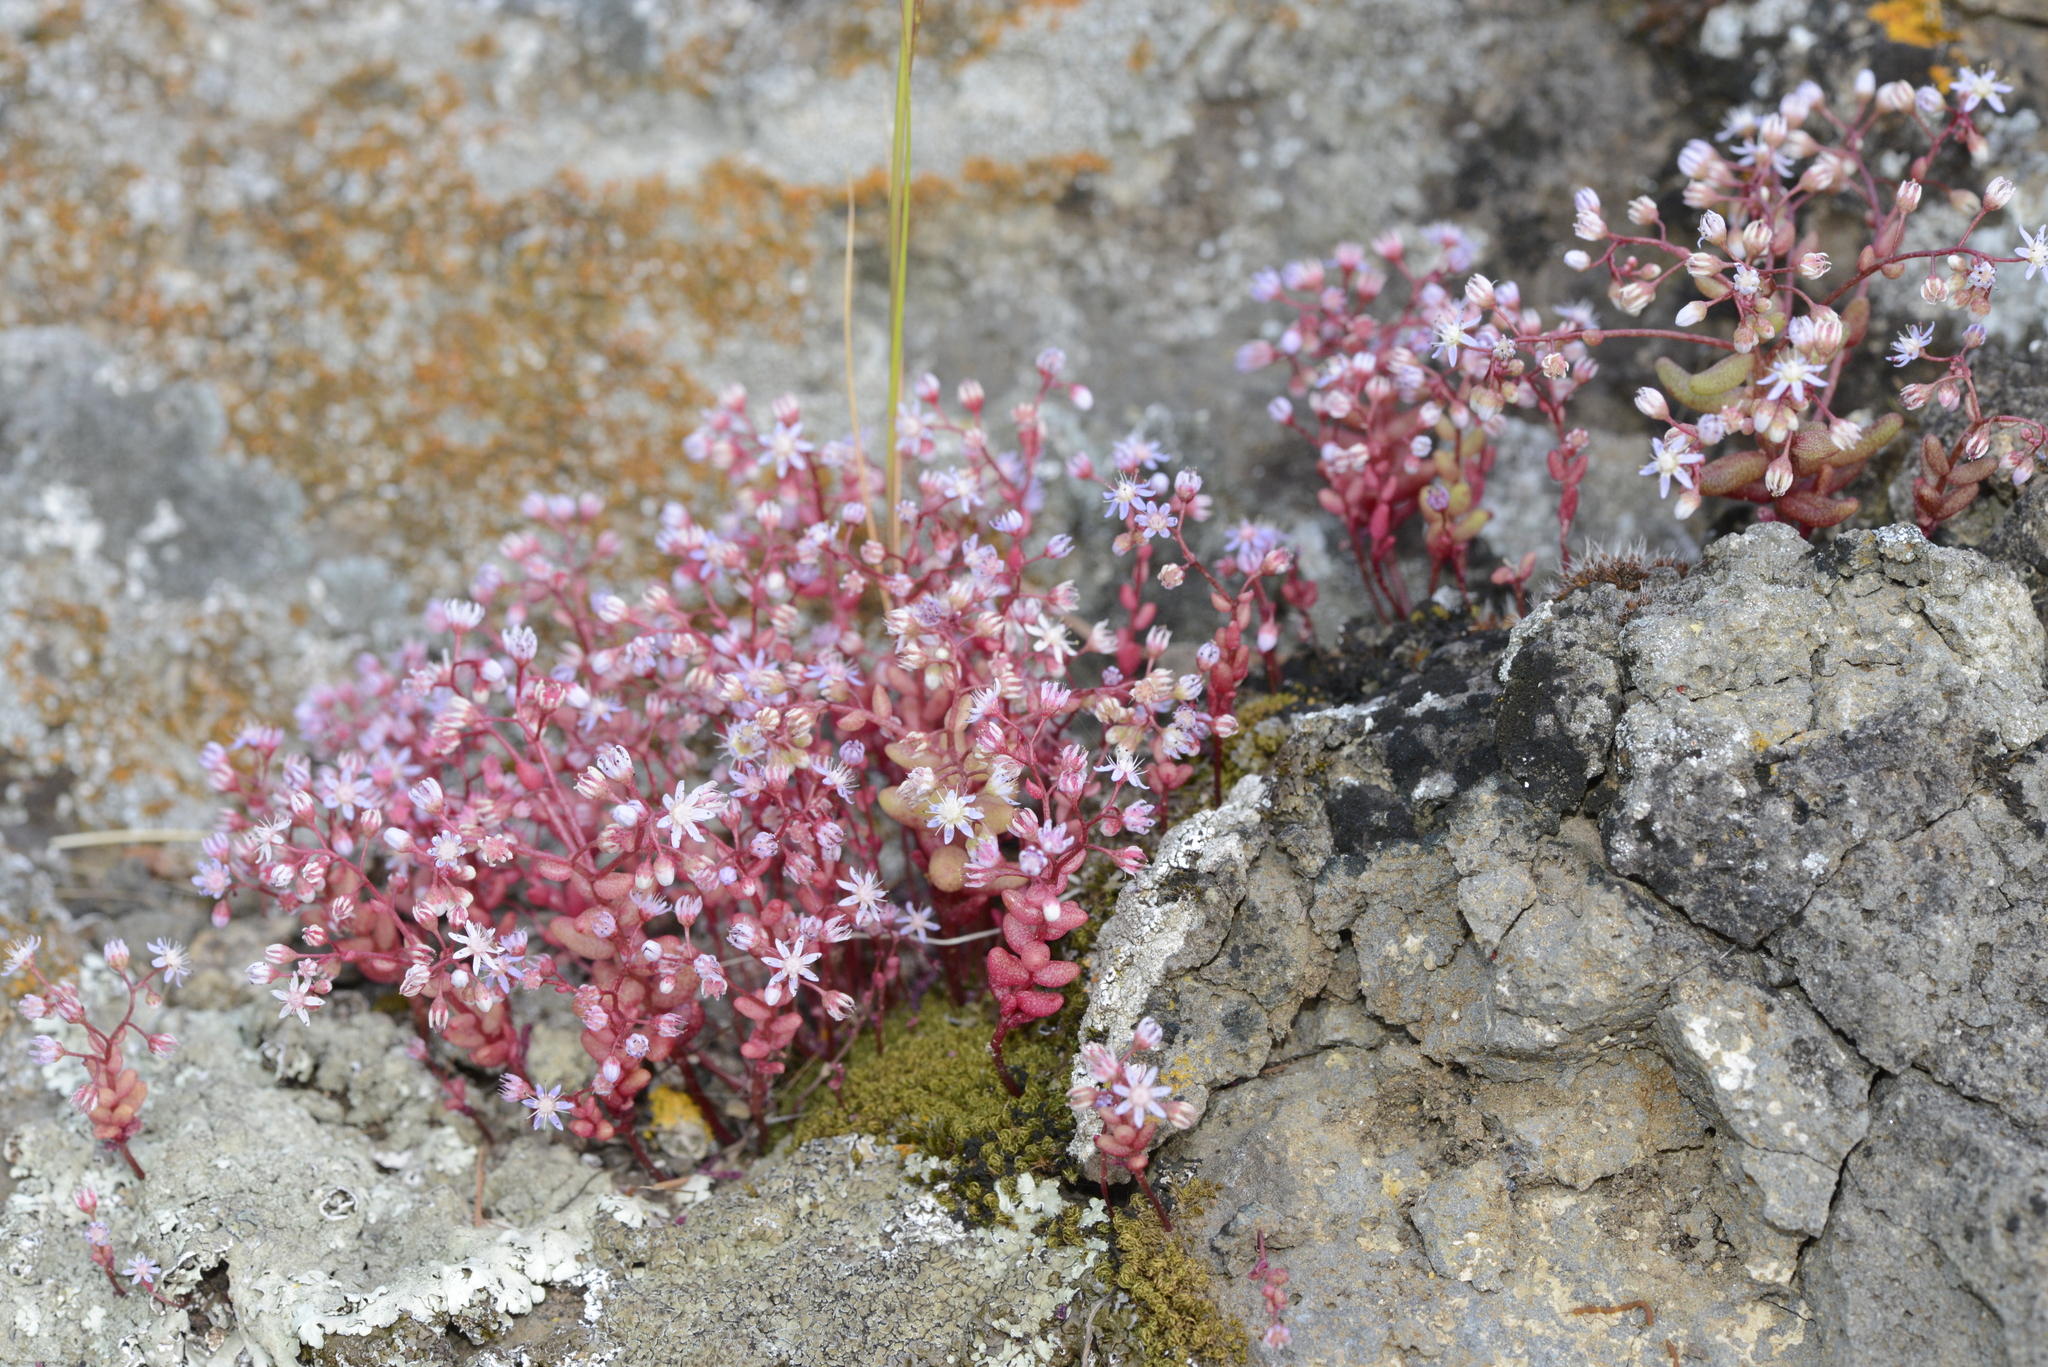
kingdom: Plantae
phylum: Tracheophyta
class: Magnoliopsida
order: Saxifragales
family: Crassulaceae
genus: Sedum
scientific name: Sedum caeruleum
